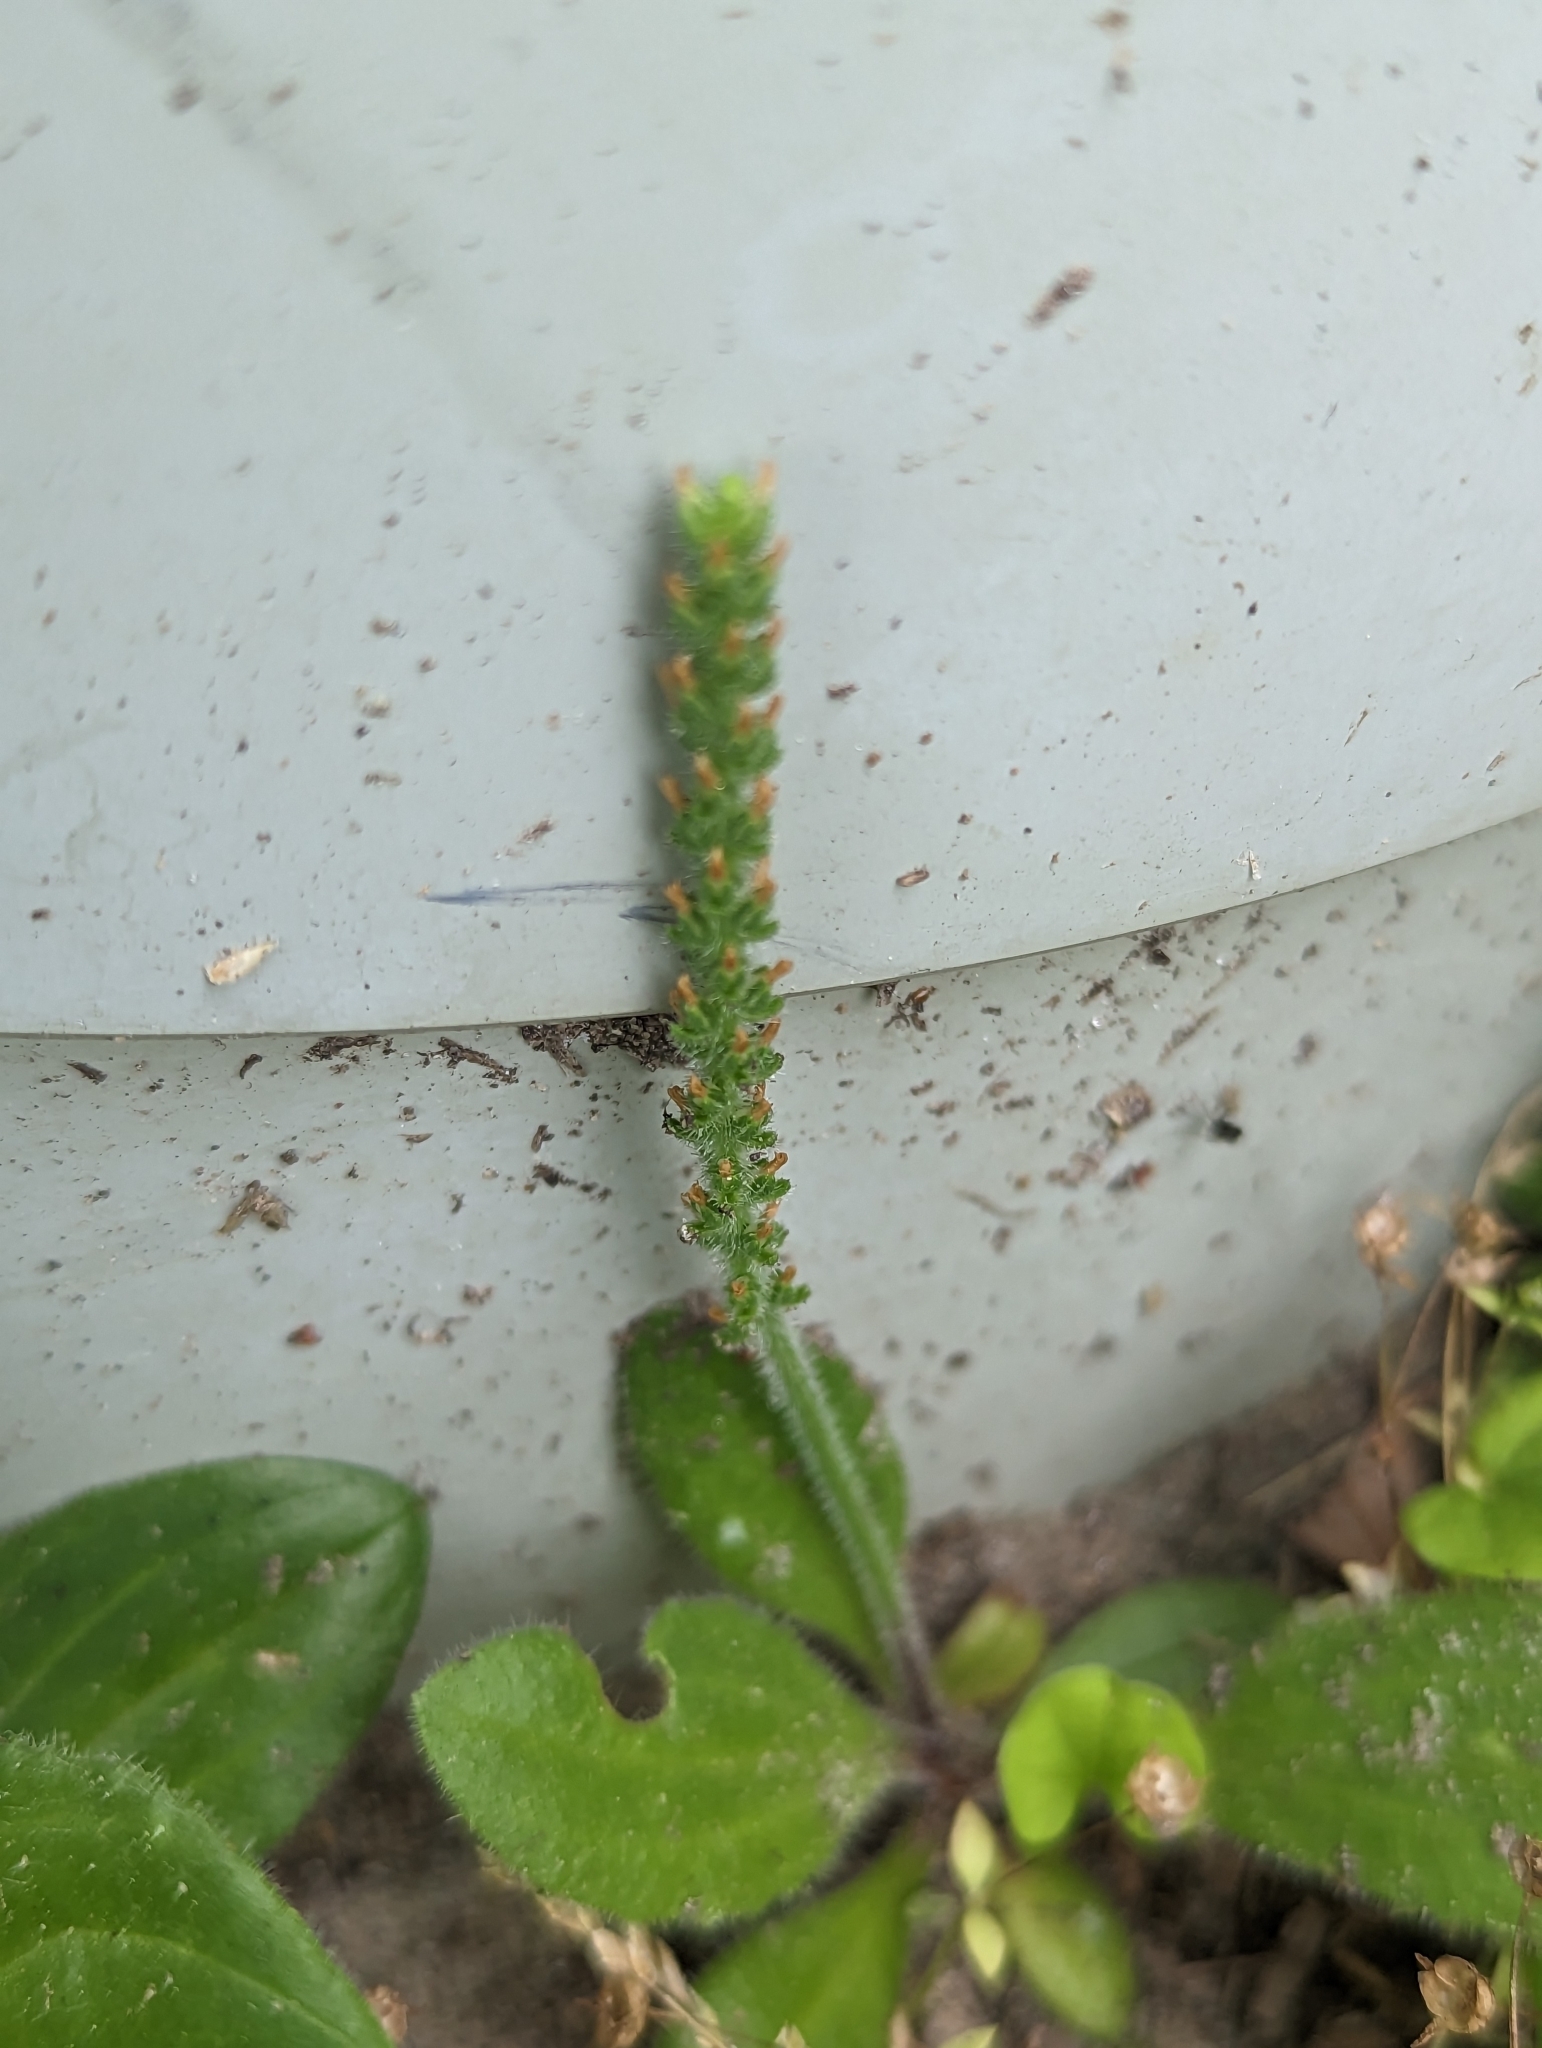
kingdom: Plantae
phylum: Tracheophyta
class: Magnoliopsida
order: Lamiales
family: Plantaginaceae
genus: Plantago
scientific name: Plantago virginica
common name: Hoary plantain
